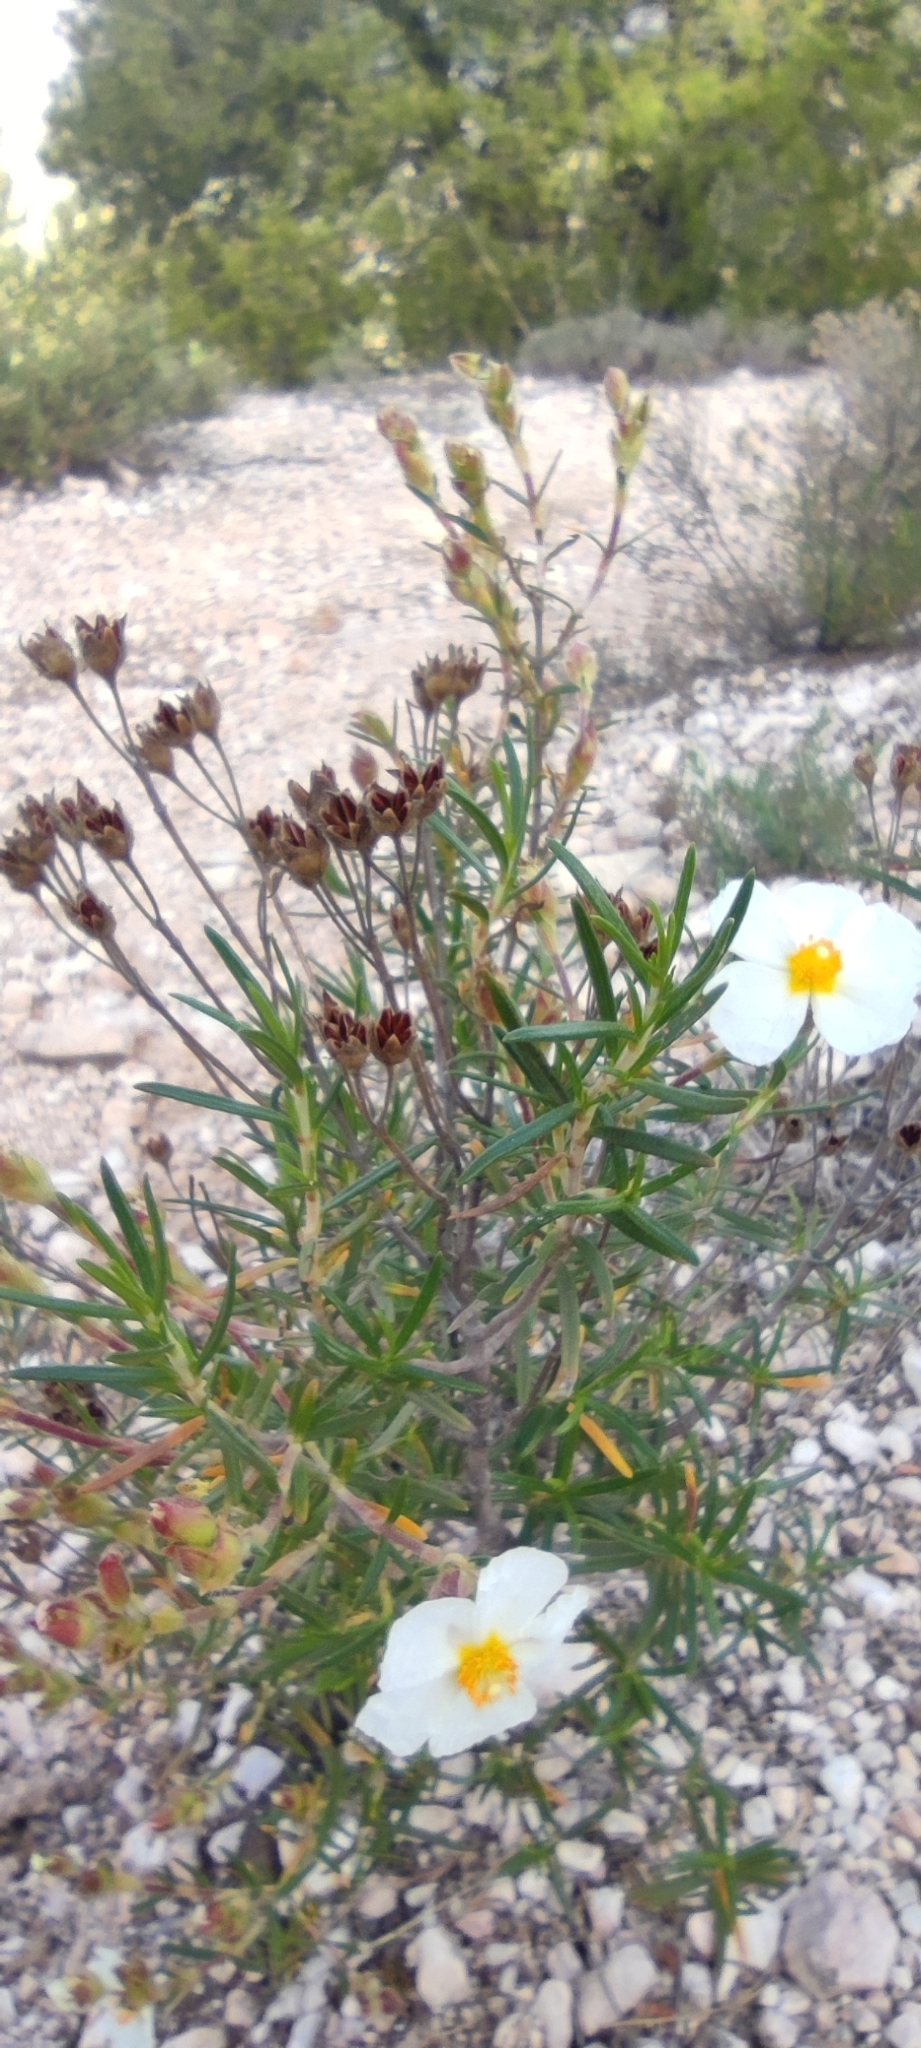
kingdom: Plantae
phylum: Tracheophyta
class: Magnoliopsida
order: Malvales
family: Cistaceae
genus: Cistus
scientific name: Cistus clusii
